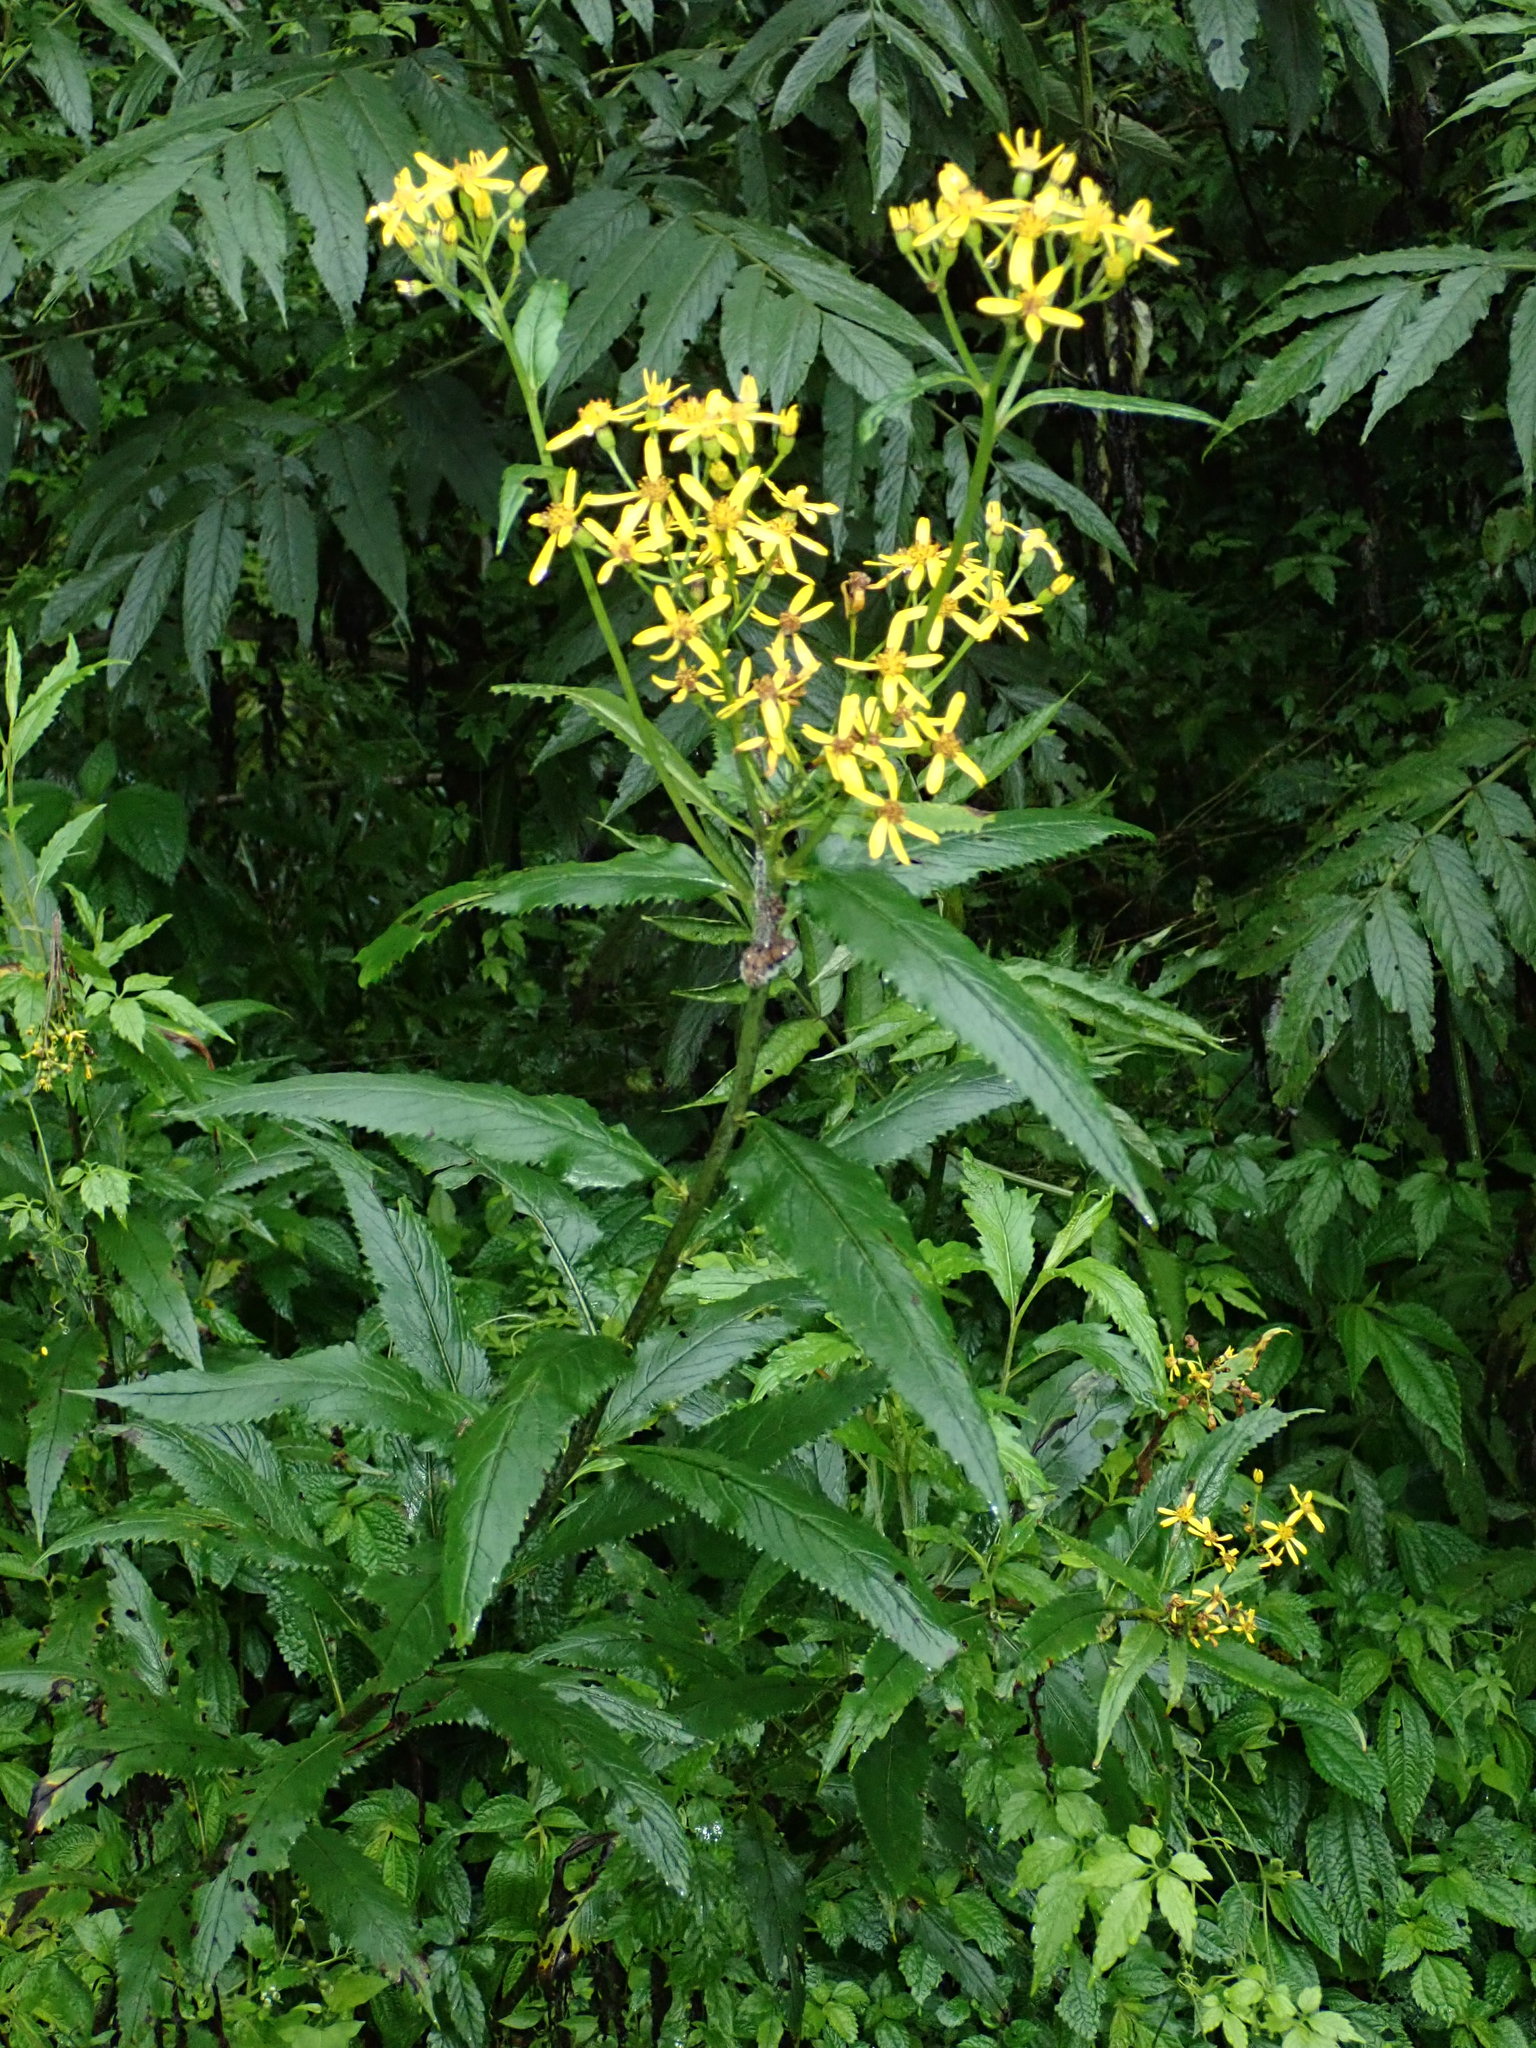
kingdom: Plantae
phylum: Tracheophyta
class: Magnoliopsida
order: Asterales
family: Asteraceae
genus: Jacobaea
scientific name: Jacobaea morrisonensis
